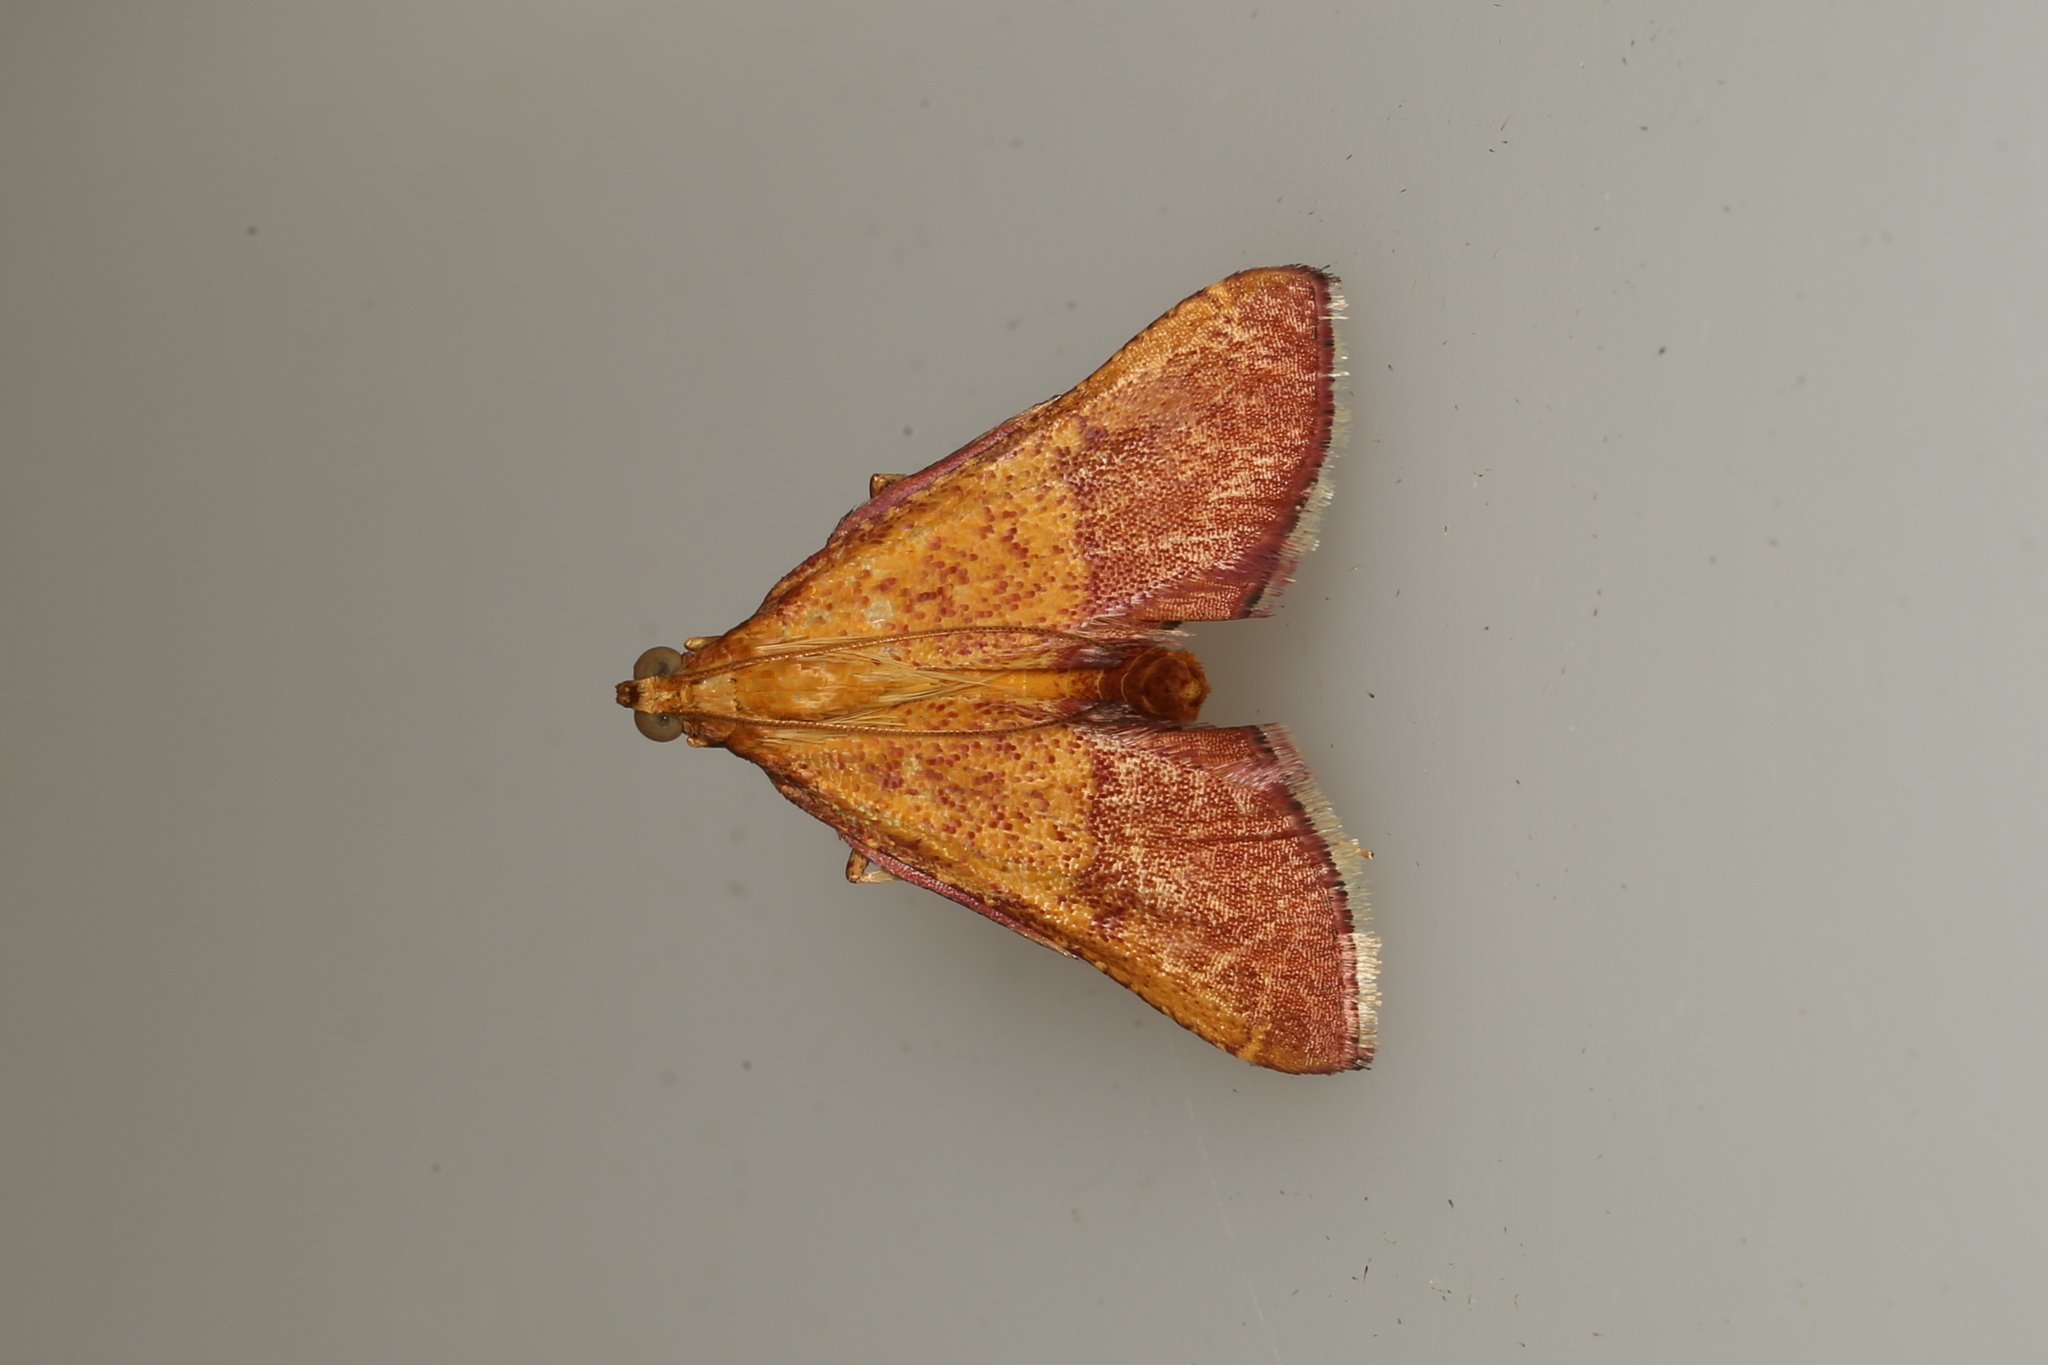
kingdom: Animalia
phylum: Arthropoda
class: Insecta
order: Lepidoptera
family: Pyralidae
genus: Endotricha
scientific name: Endotricha pyrosalis
